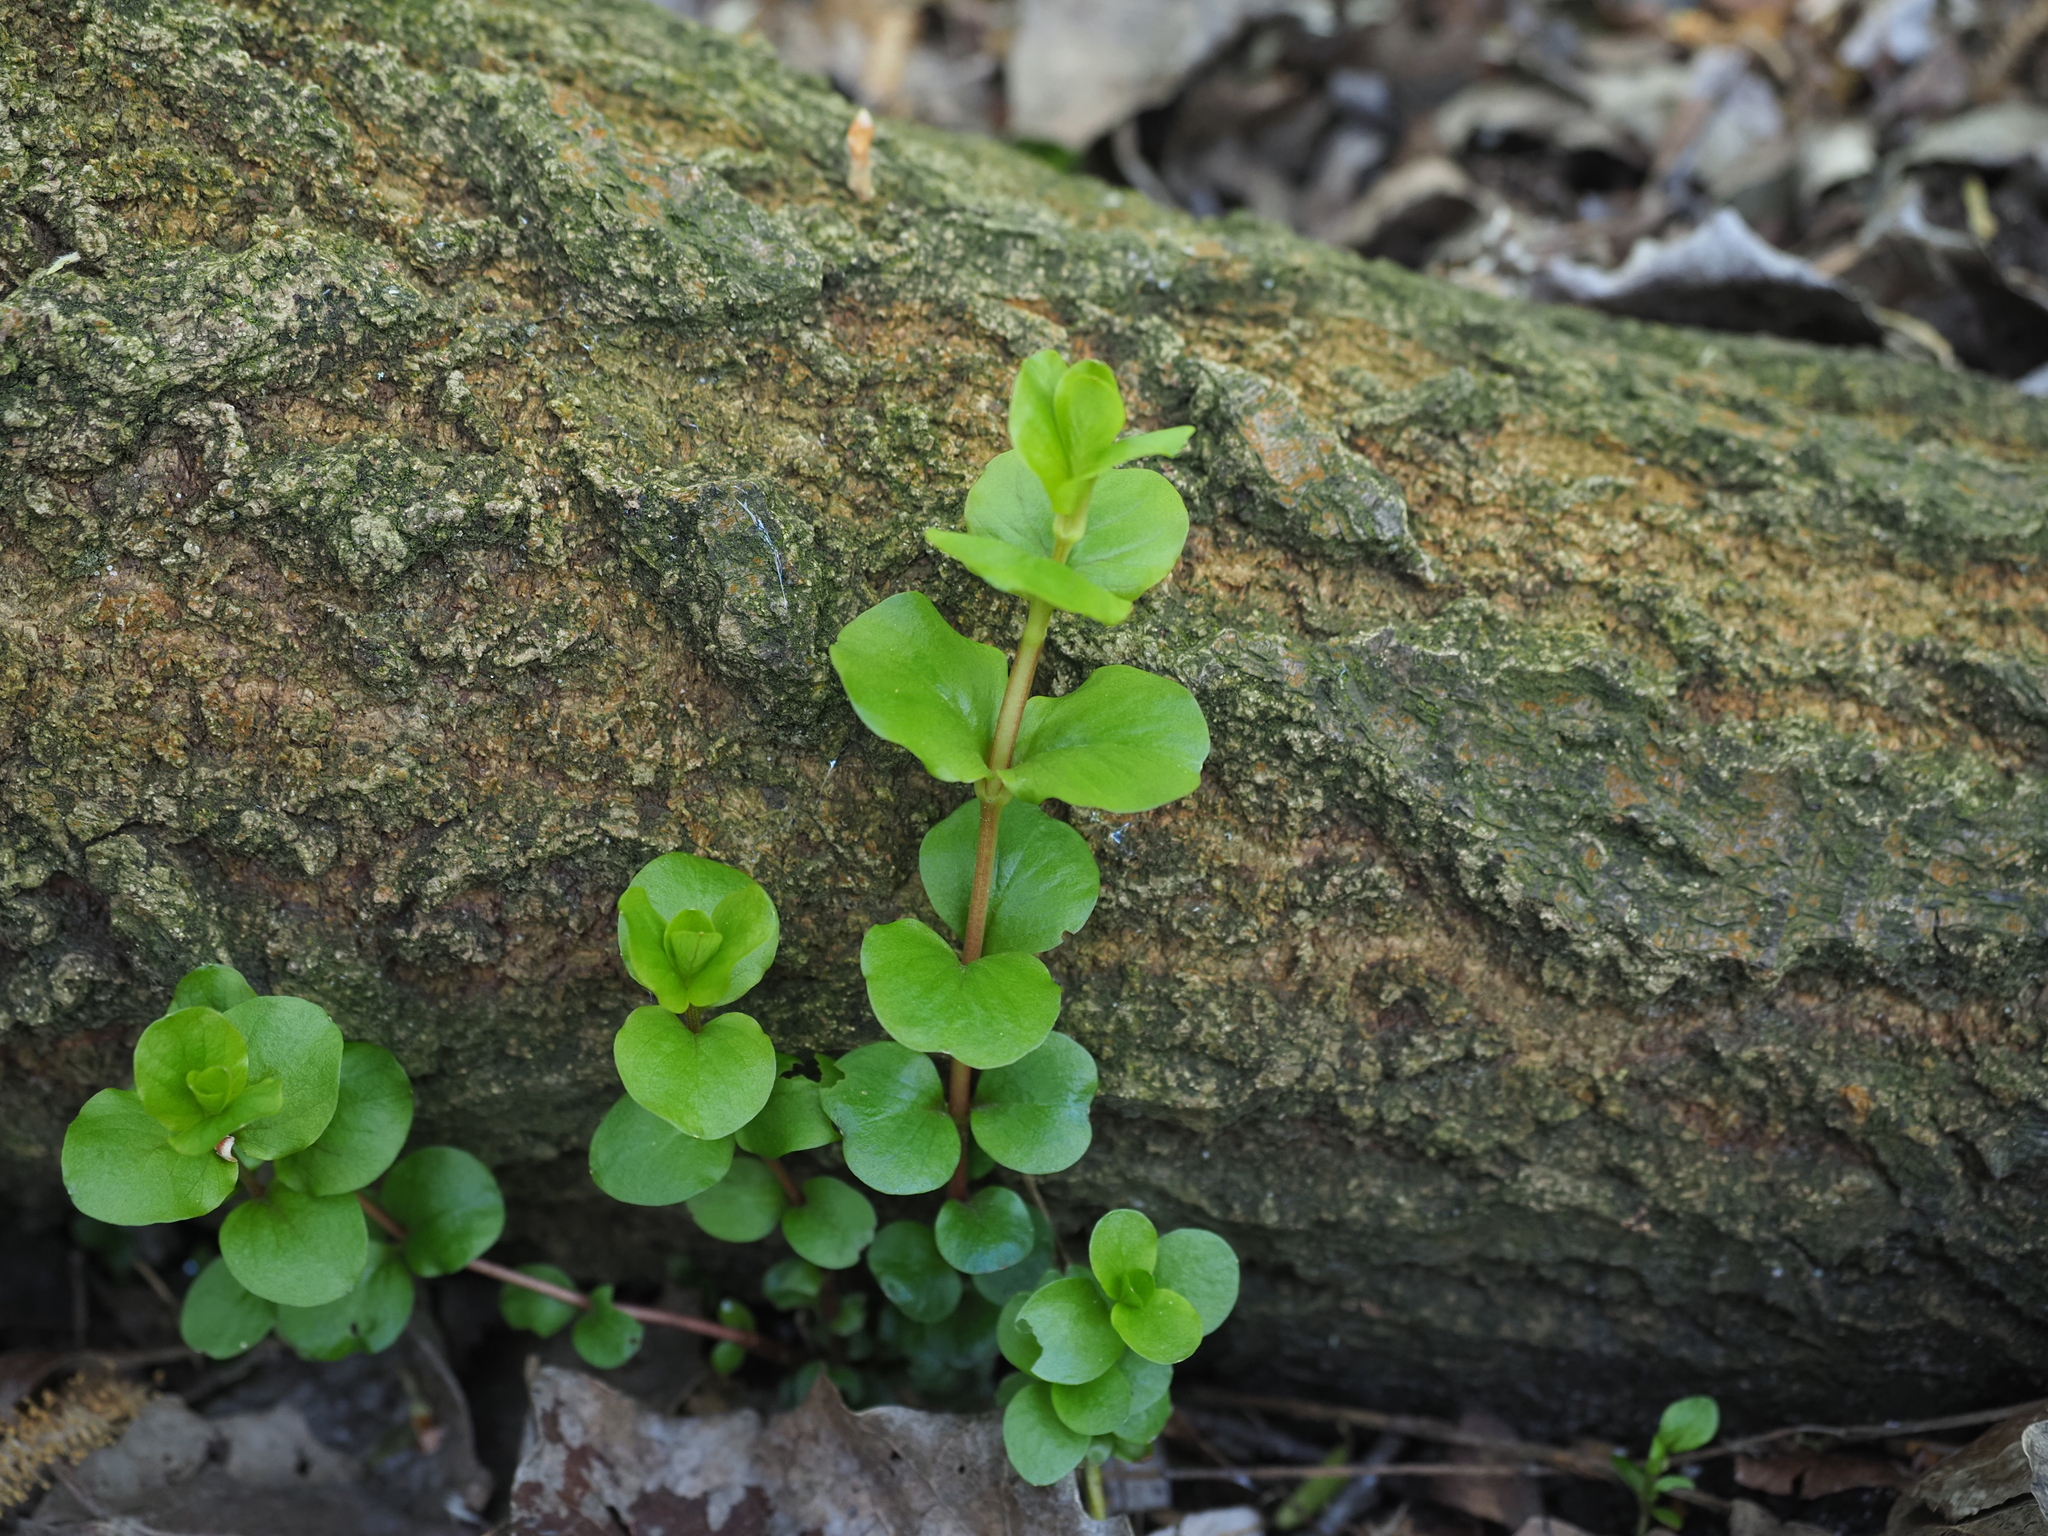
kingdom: Plantae
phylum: Tracheophyta
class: Magnoliopsida
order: Ericales
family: Primulaceae
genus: Lysimachia
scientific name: Lysimachia nummularia
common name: Moneywort
